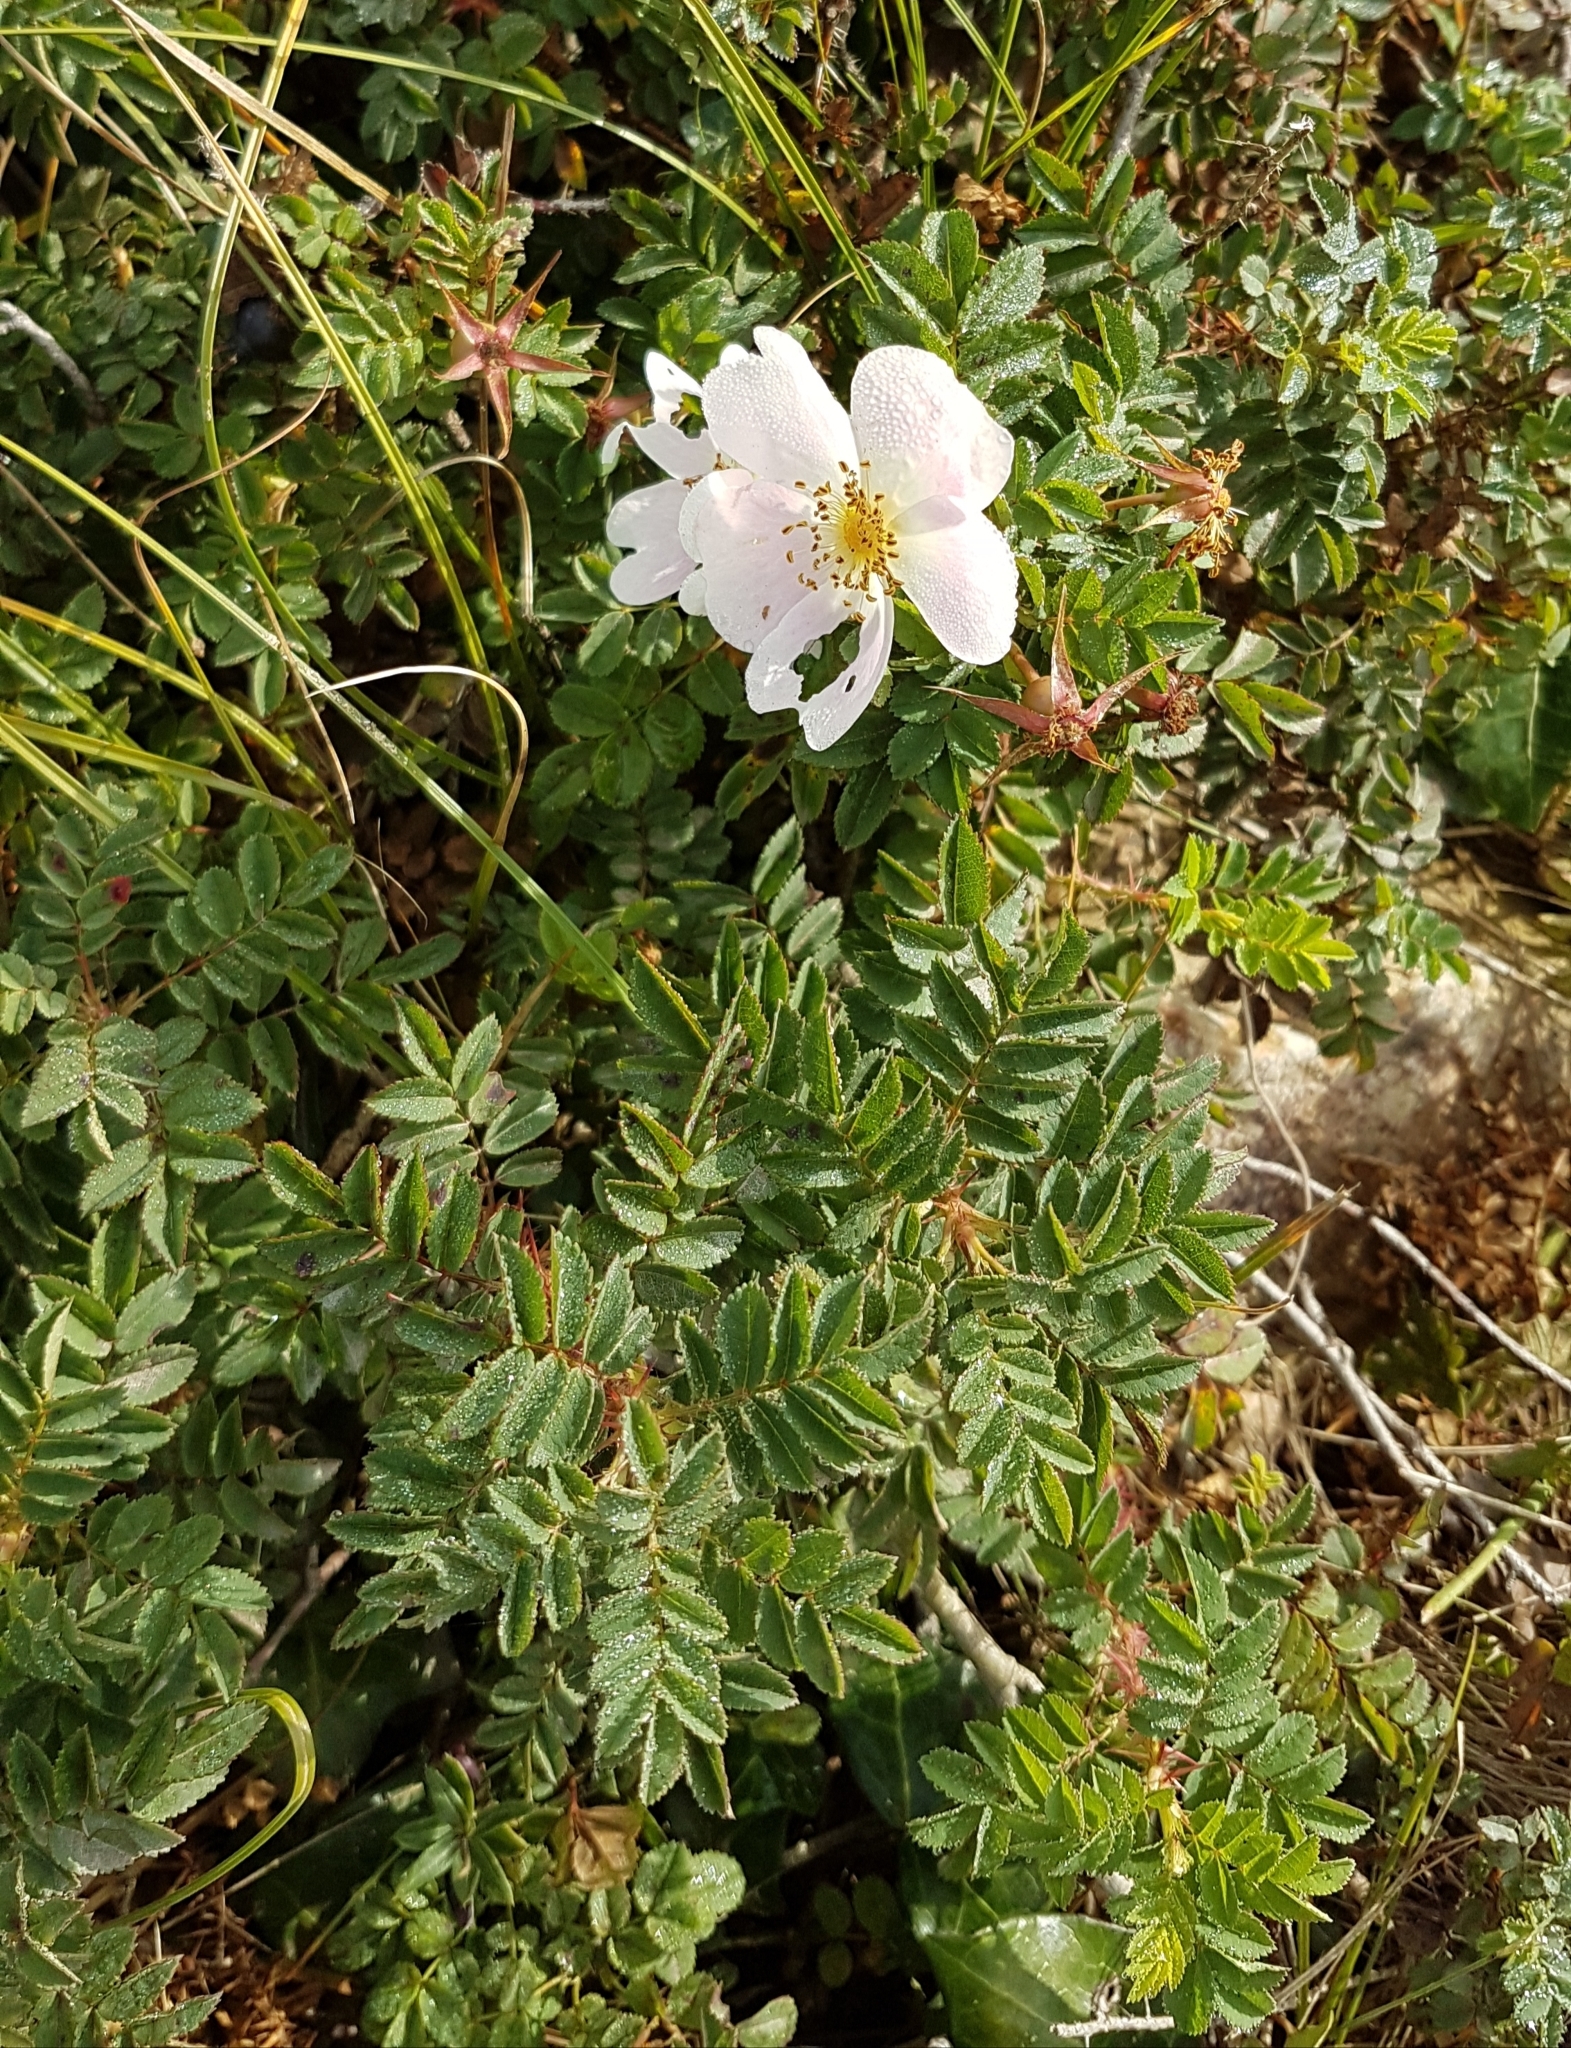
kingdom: Plantae
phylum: Tracheophyta
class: Magnoliopsida
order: Rosales
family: Rosaceae
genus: Rosa
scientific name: Rosa spinosissima
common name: Burnet rose
